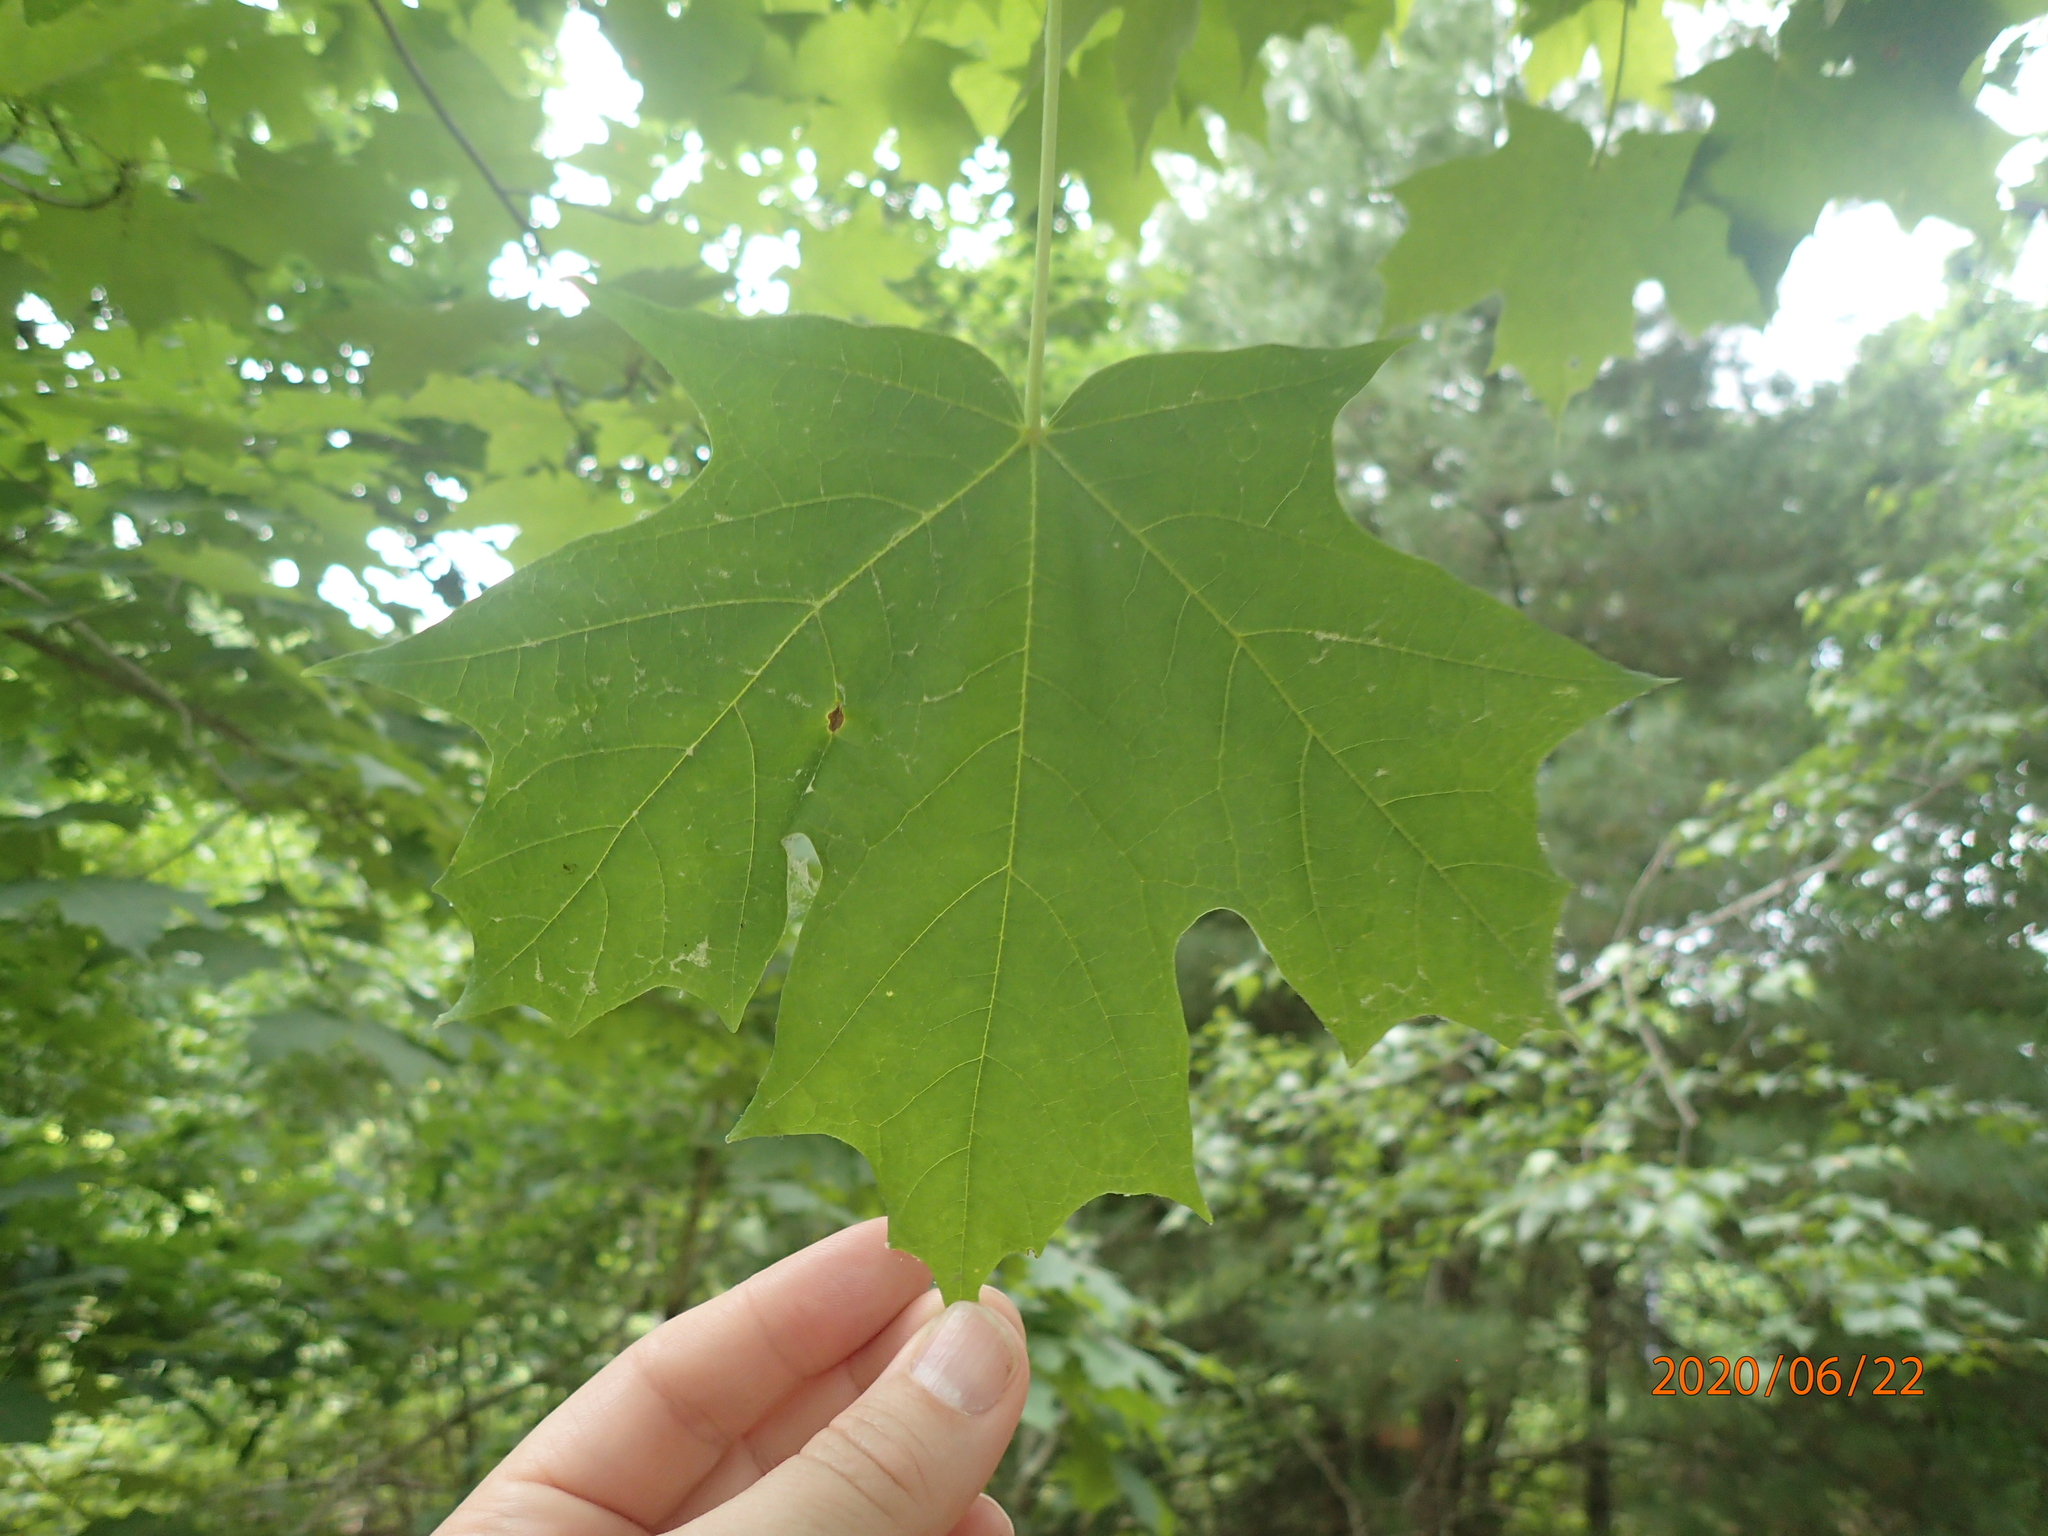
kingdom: Plantae
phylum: Tracheophyta
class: Magnoliopsida
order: Sapindales
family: Sapindaceae
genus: Acer
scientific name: Acer saccharum
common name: Sugar maple
